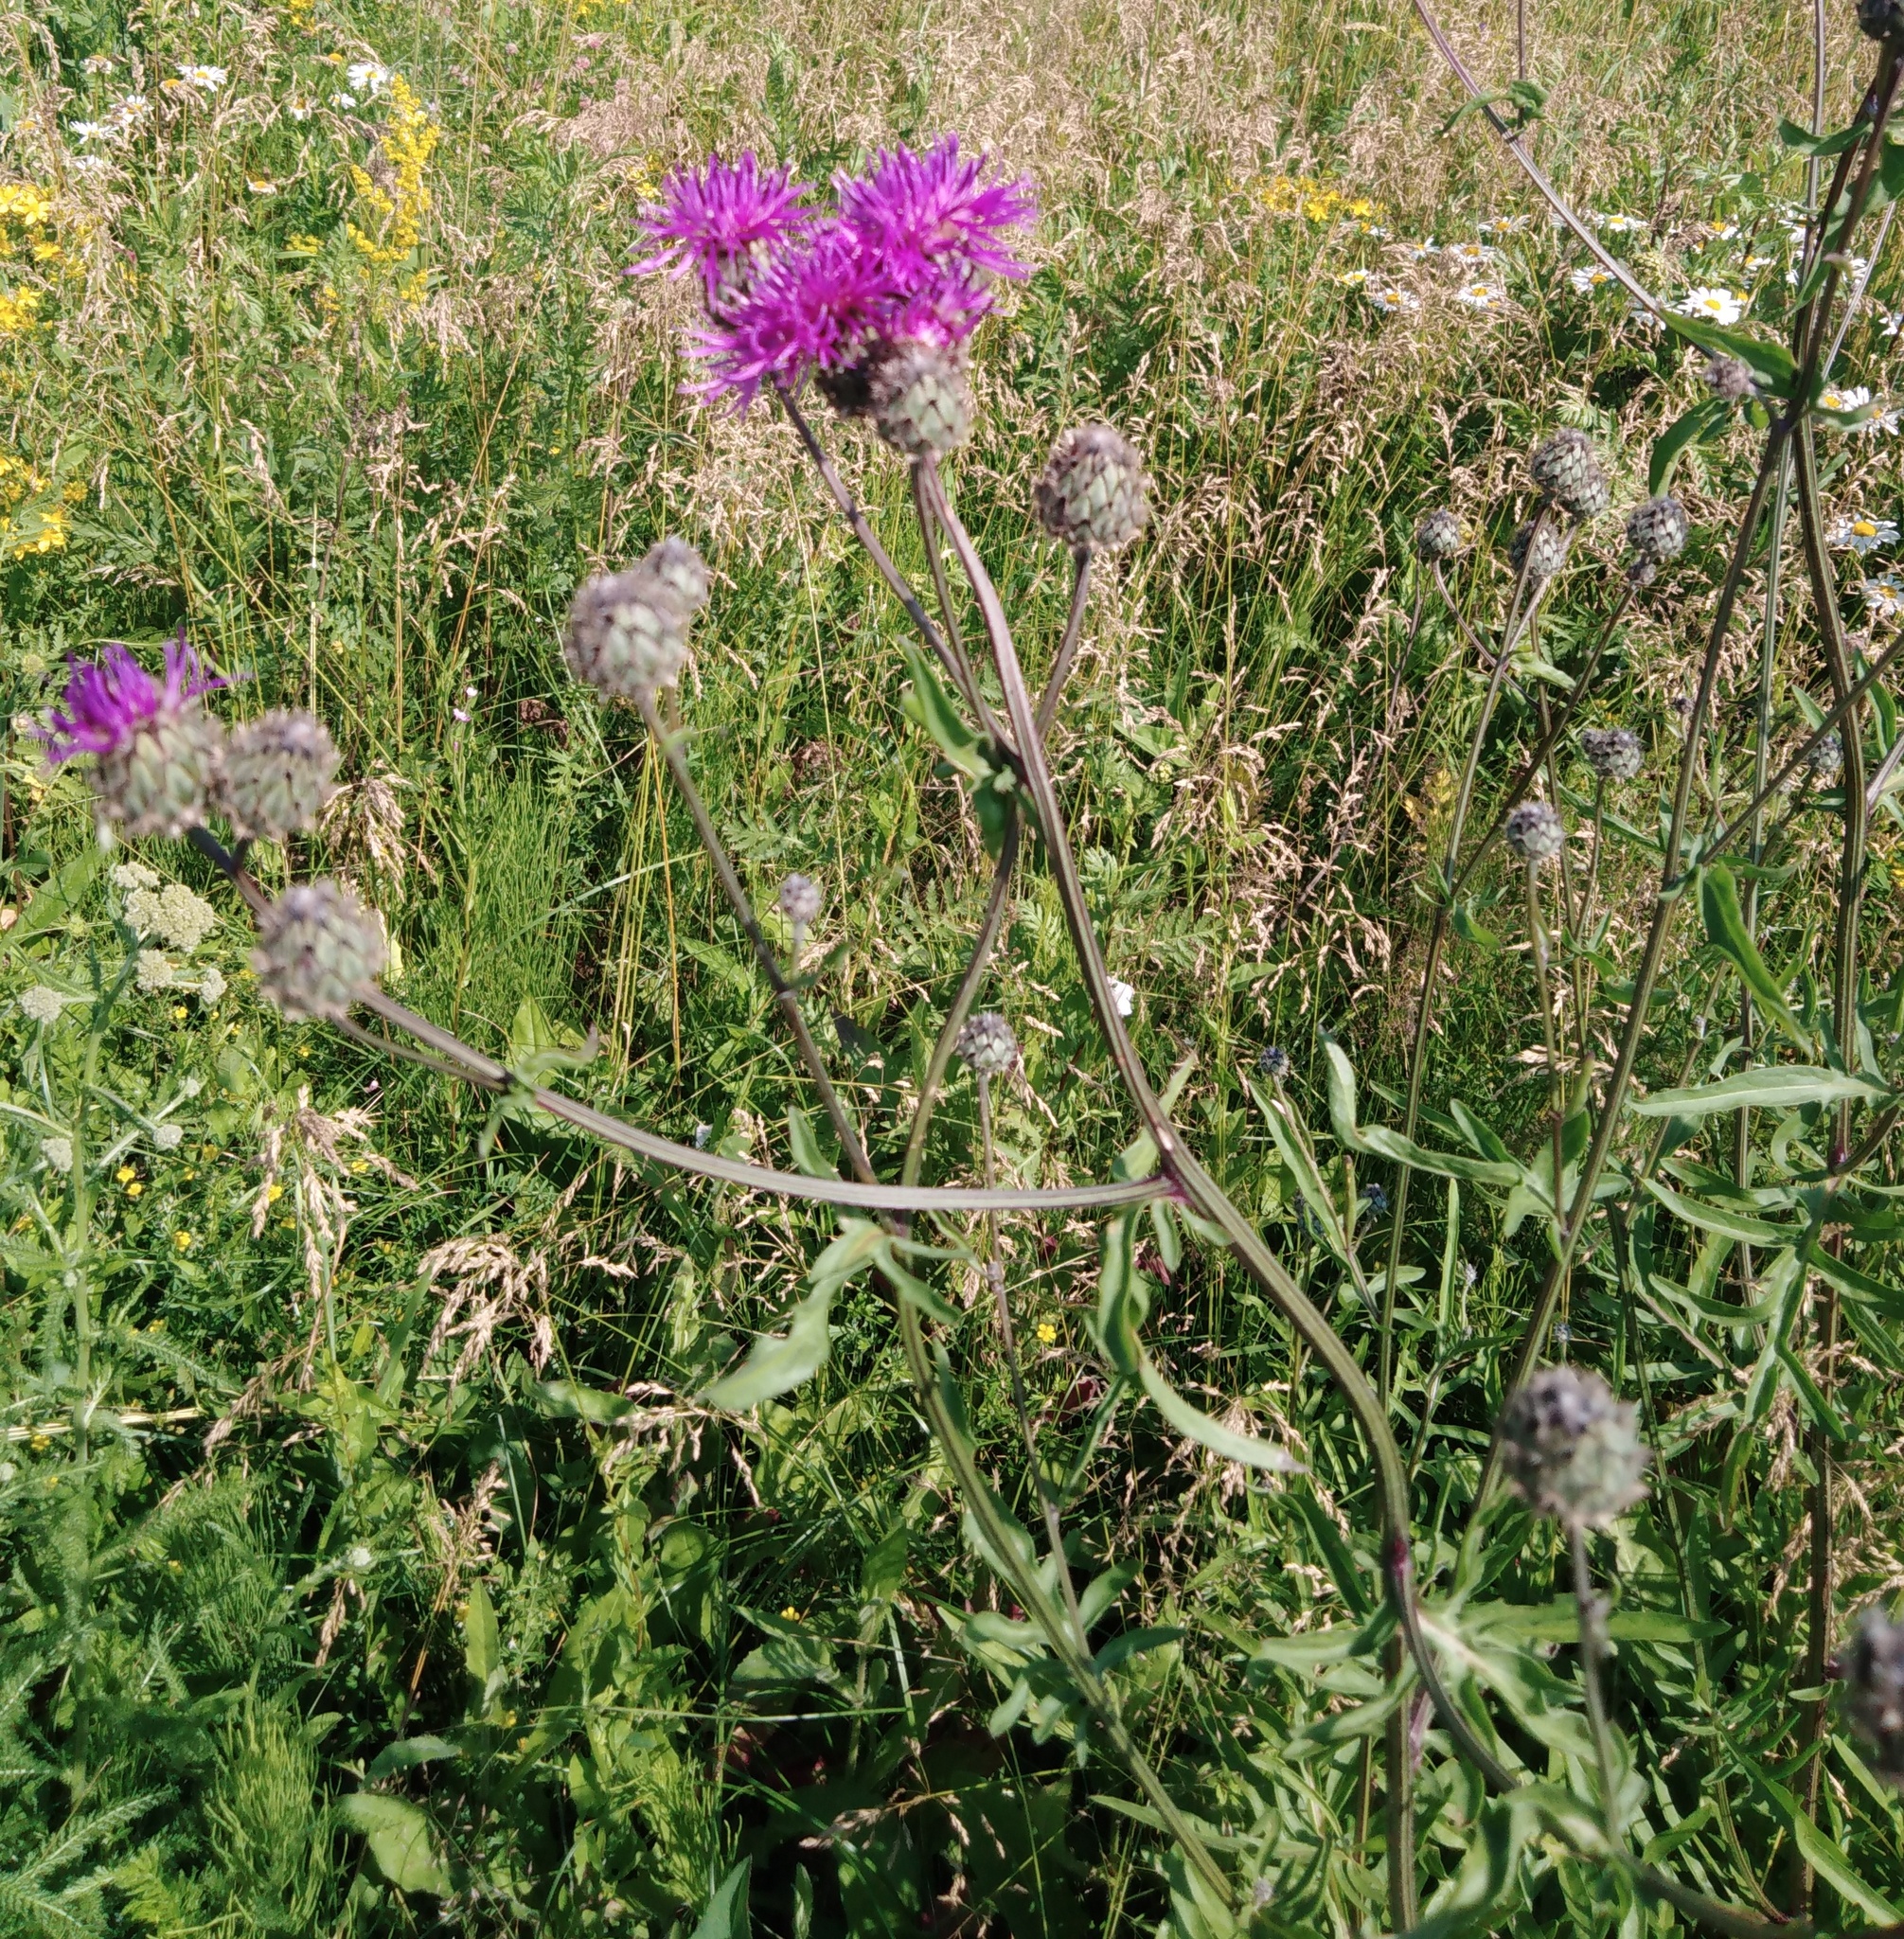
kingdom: Plantae
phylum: Tracheophyta
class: Magnoliopsida
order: Asterales
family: Asteraceae
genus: Centaurea
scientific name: Centaurea scabiosa
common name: Greater knapweed
